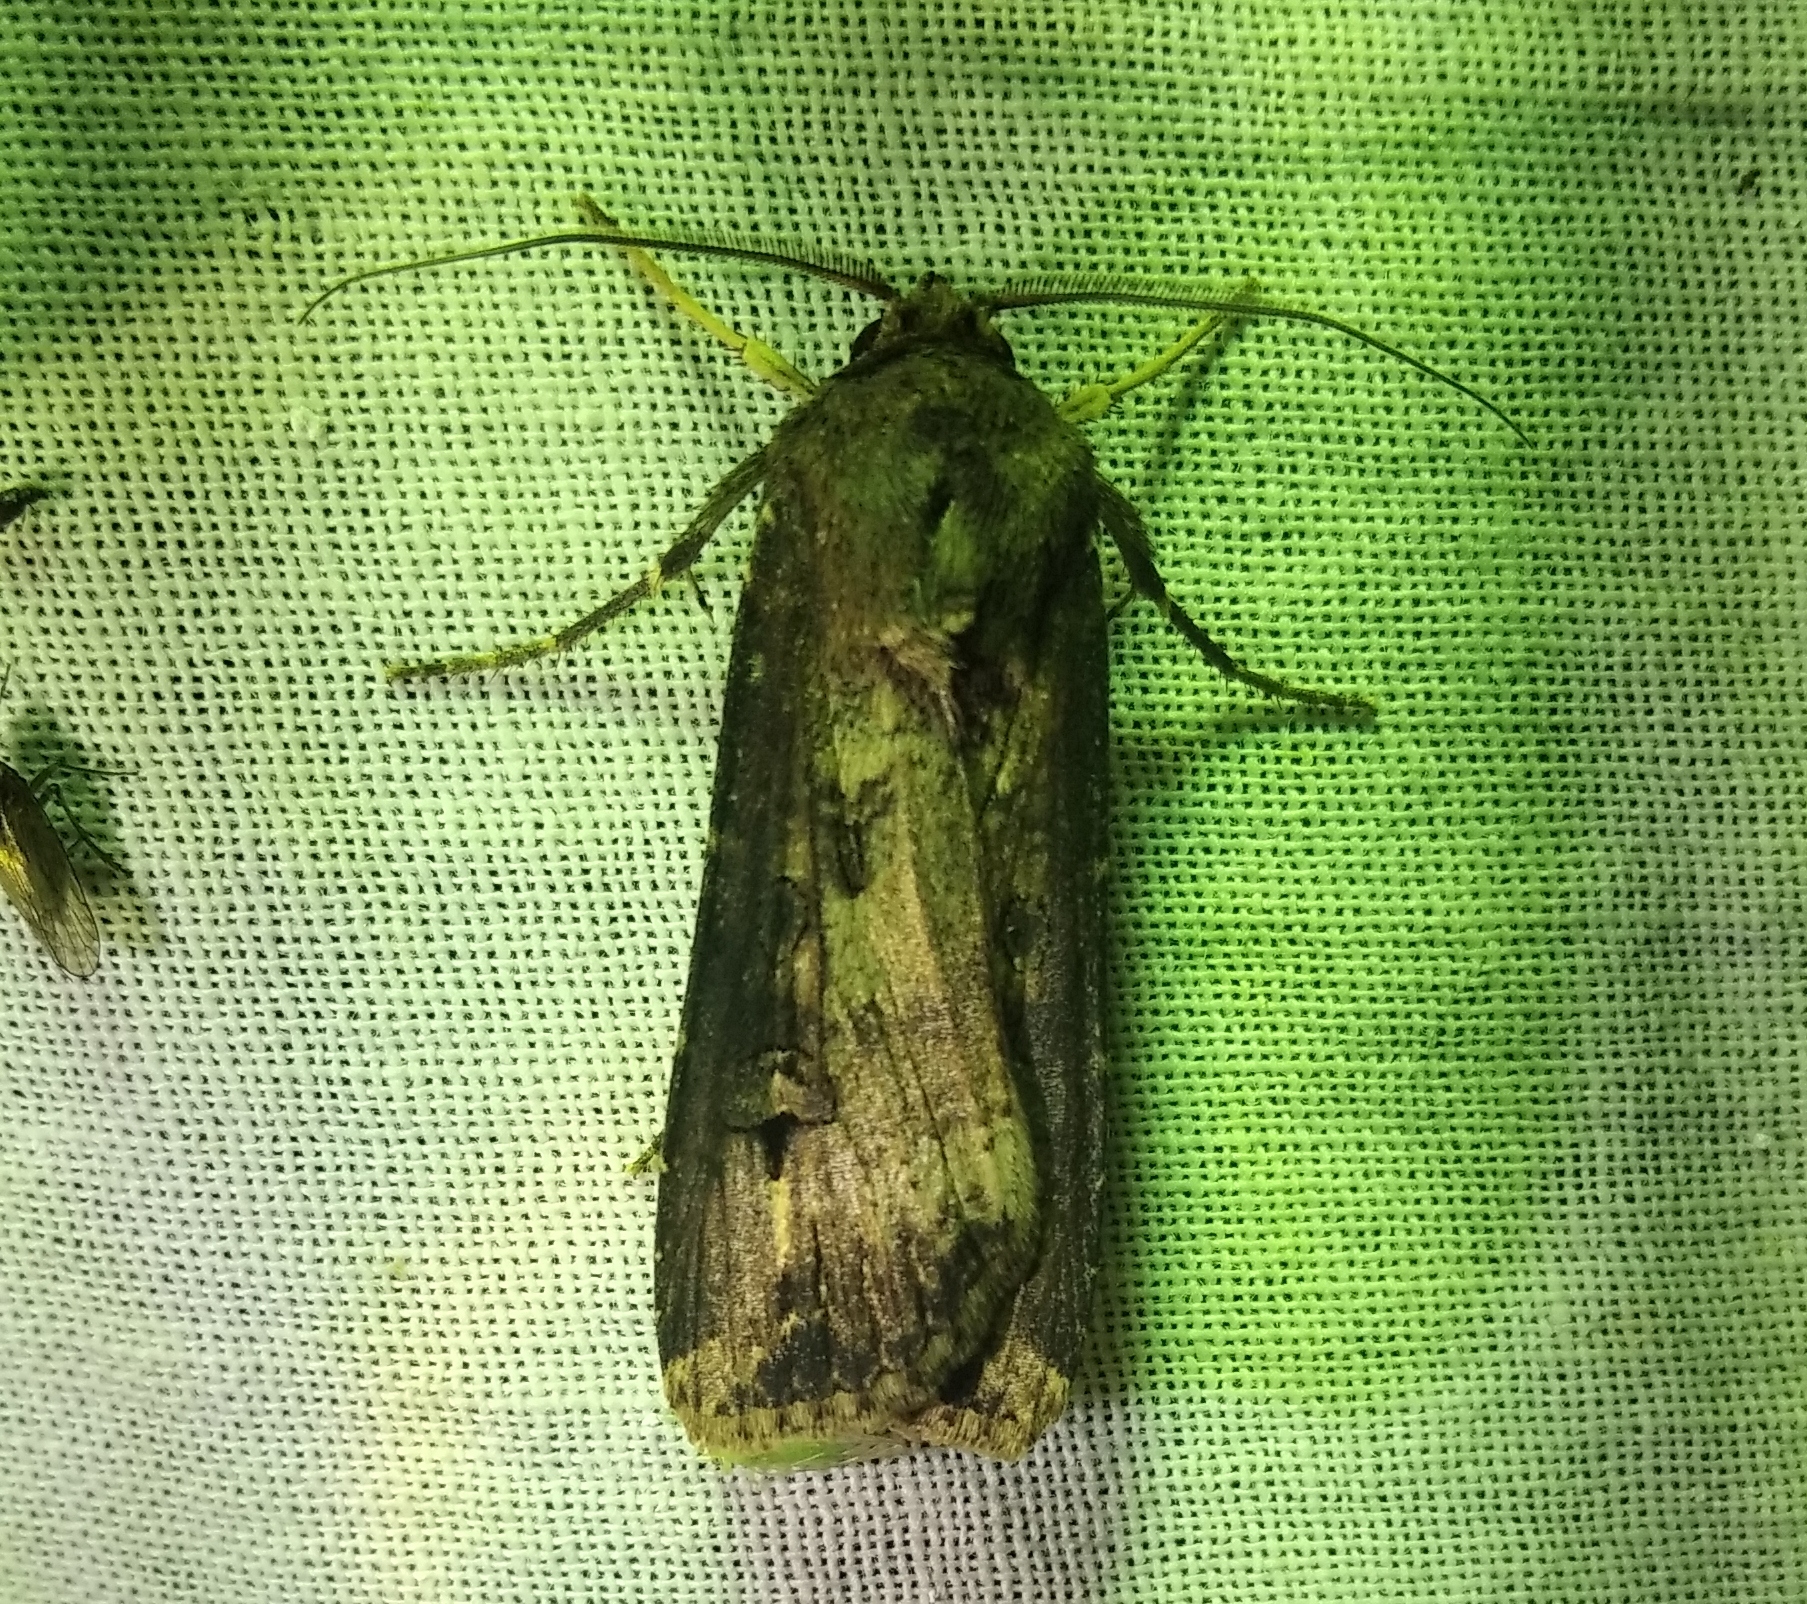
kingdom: Animalia
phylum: Arthropoda
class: Insecta
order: Lepidoptera
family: Noctuidae
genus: Agrotis
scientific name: Agrotis ipsilon
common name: Dark sword-grass
